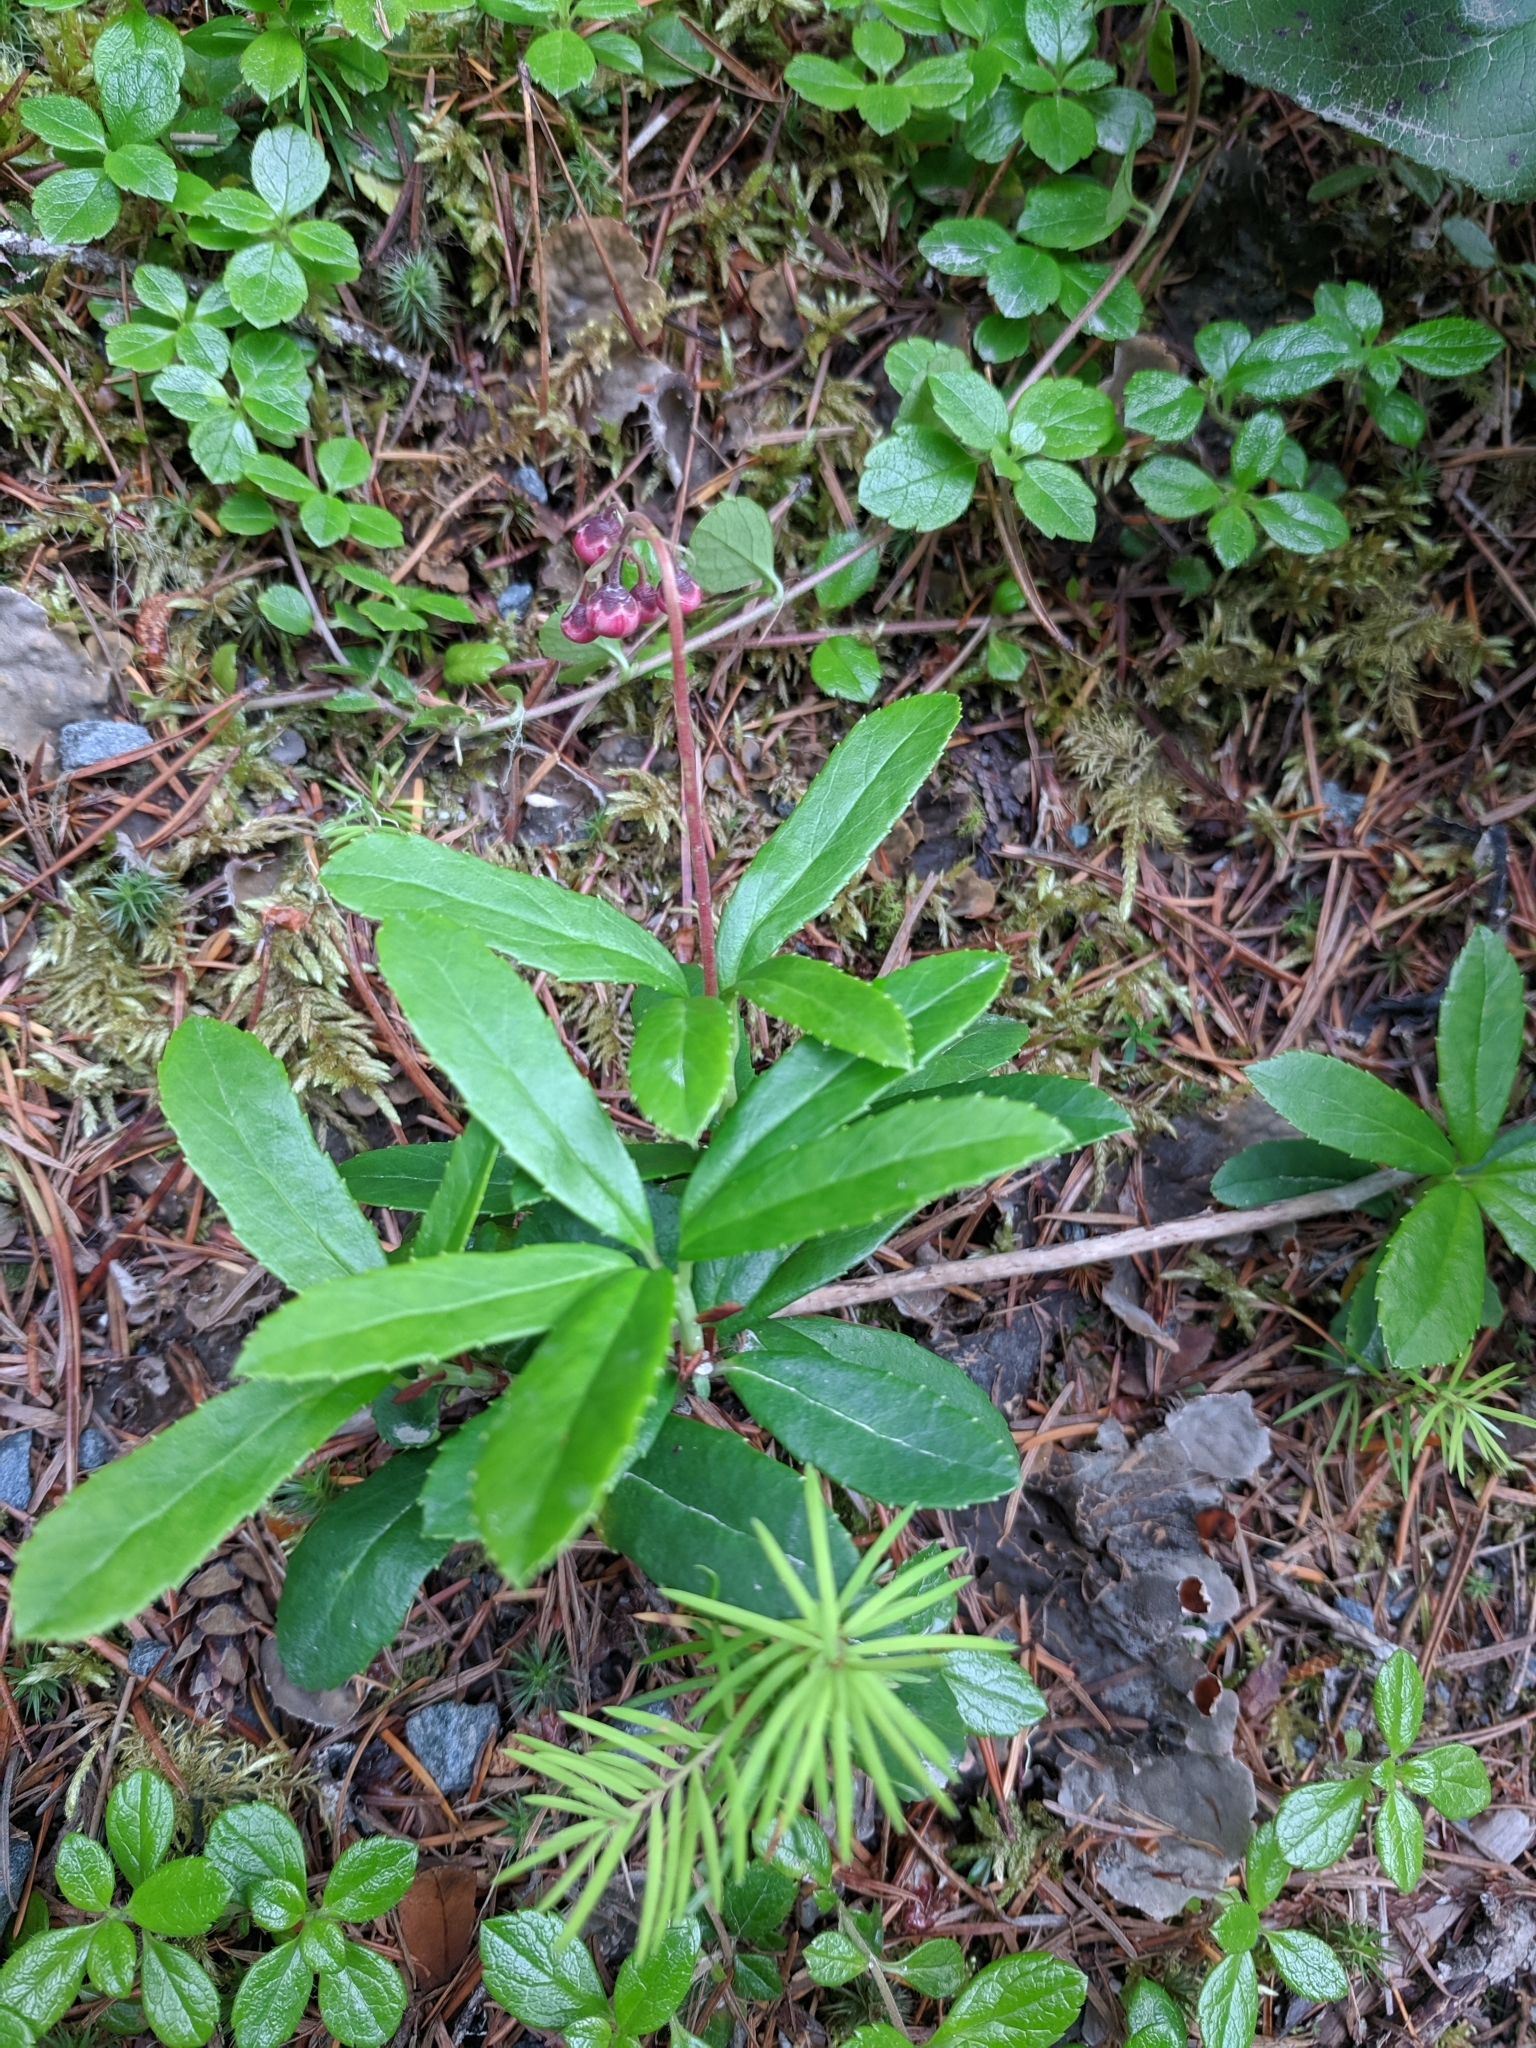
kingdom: Plantae
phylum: Tracheophyta
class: Magnoliopsida
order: Ericales
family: Ericaceae
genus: Chimaphila
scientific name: Chimaphila umbellata
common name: Pipsissewa
